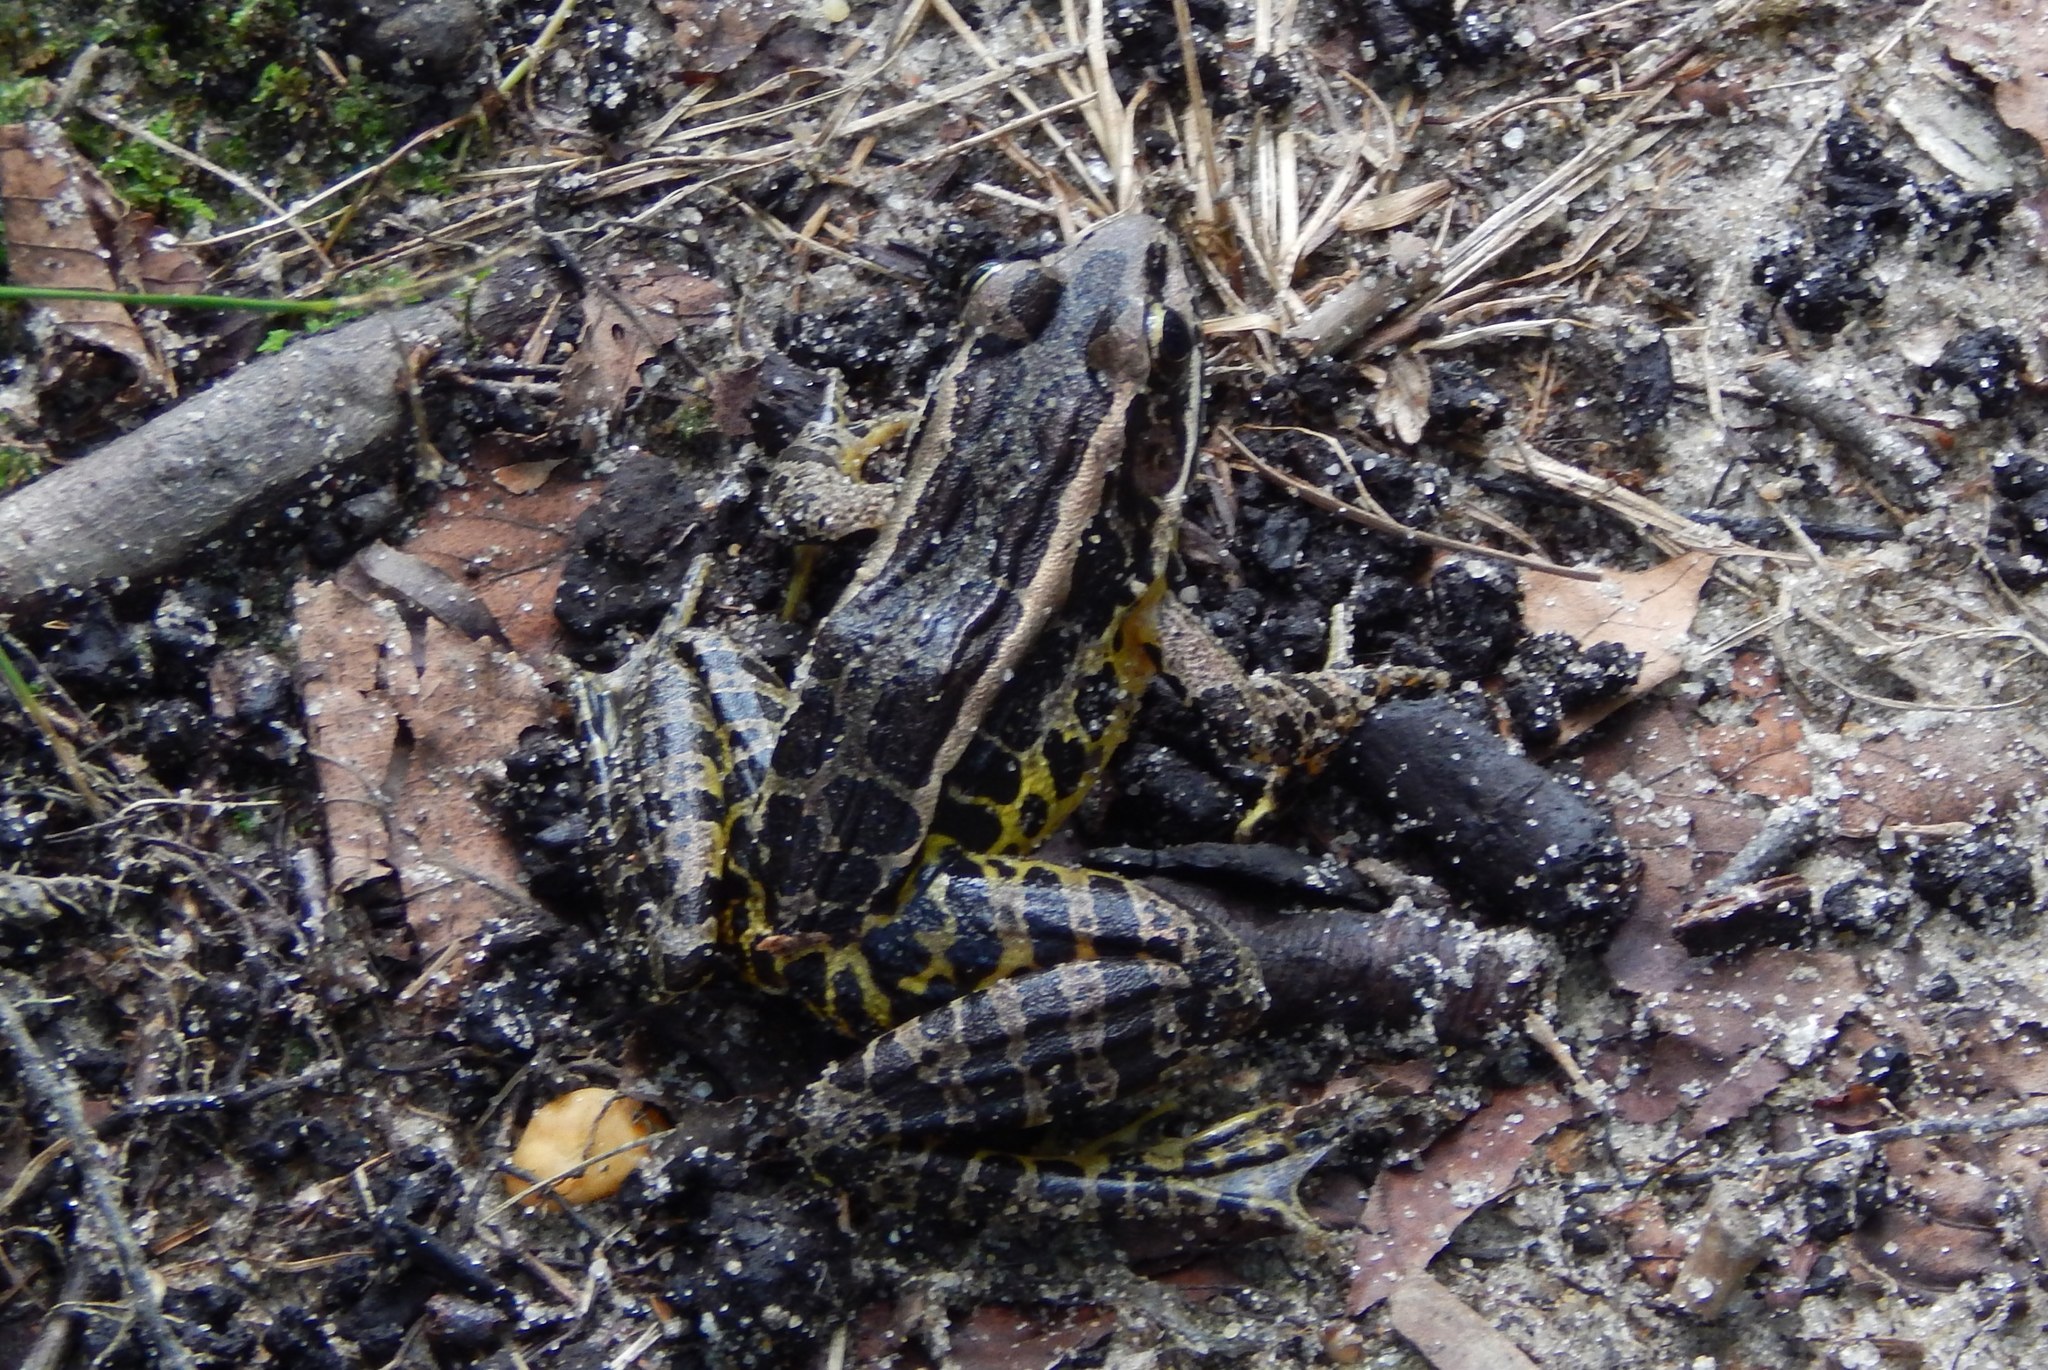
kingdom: Animalia
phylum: Chordata
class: Amphibia
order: Anura
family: Ranidae
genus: Lithobates
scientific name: Lithobates palustris
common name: Pickerel frog
